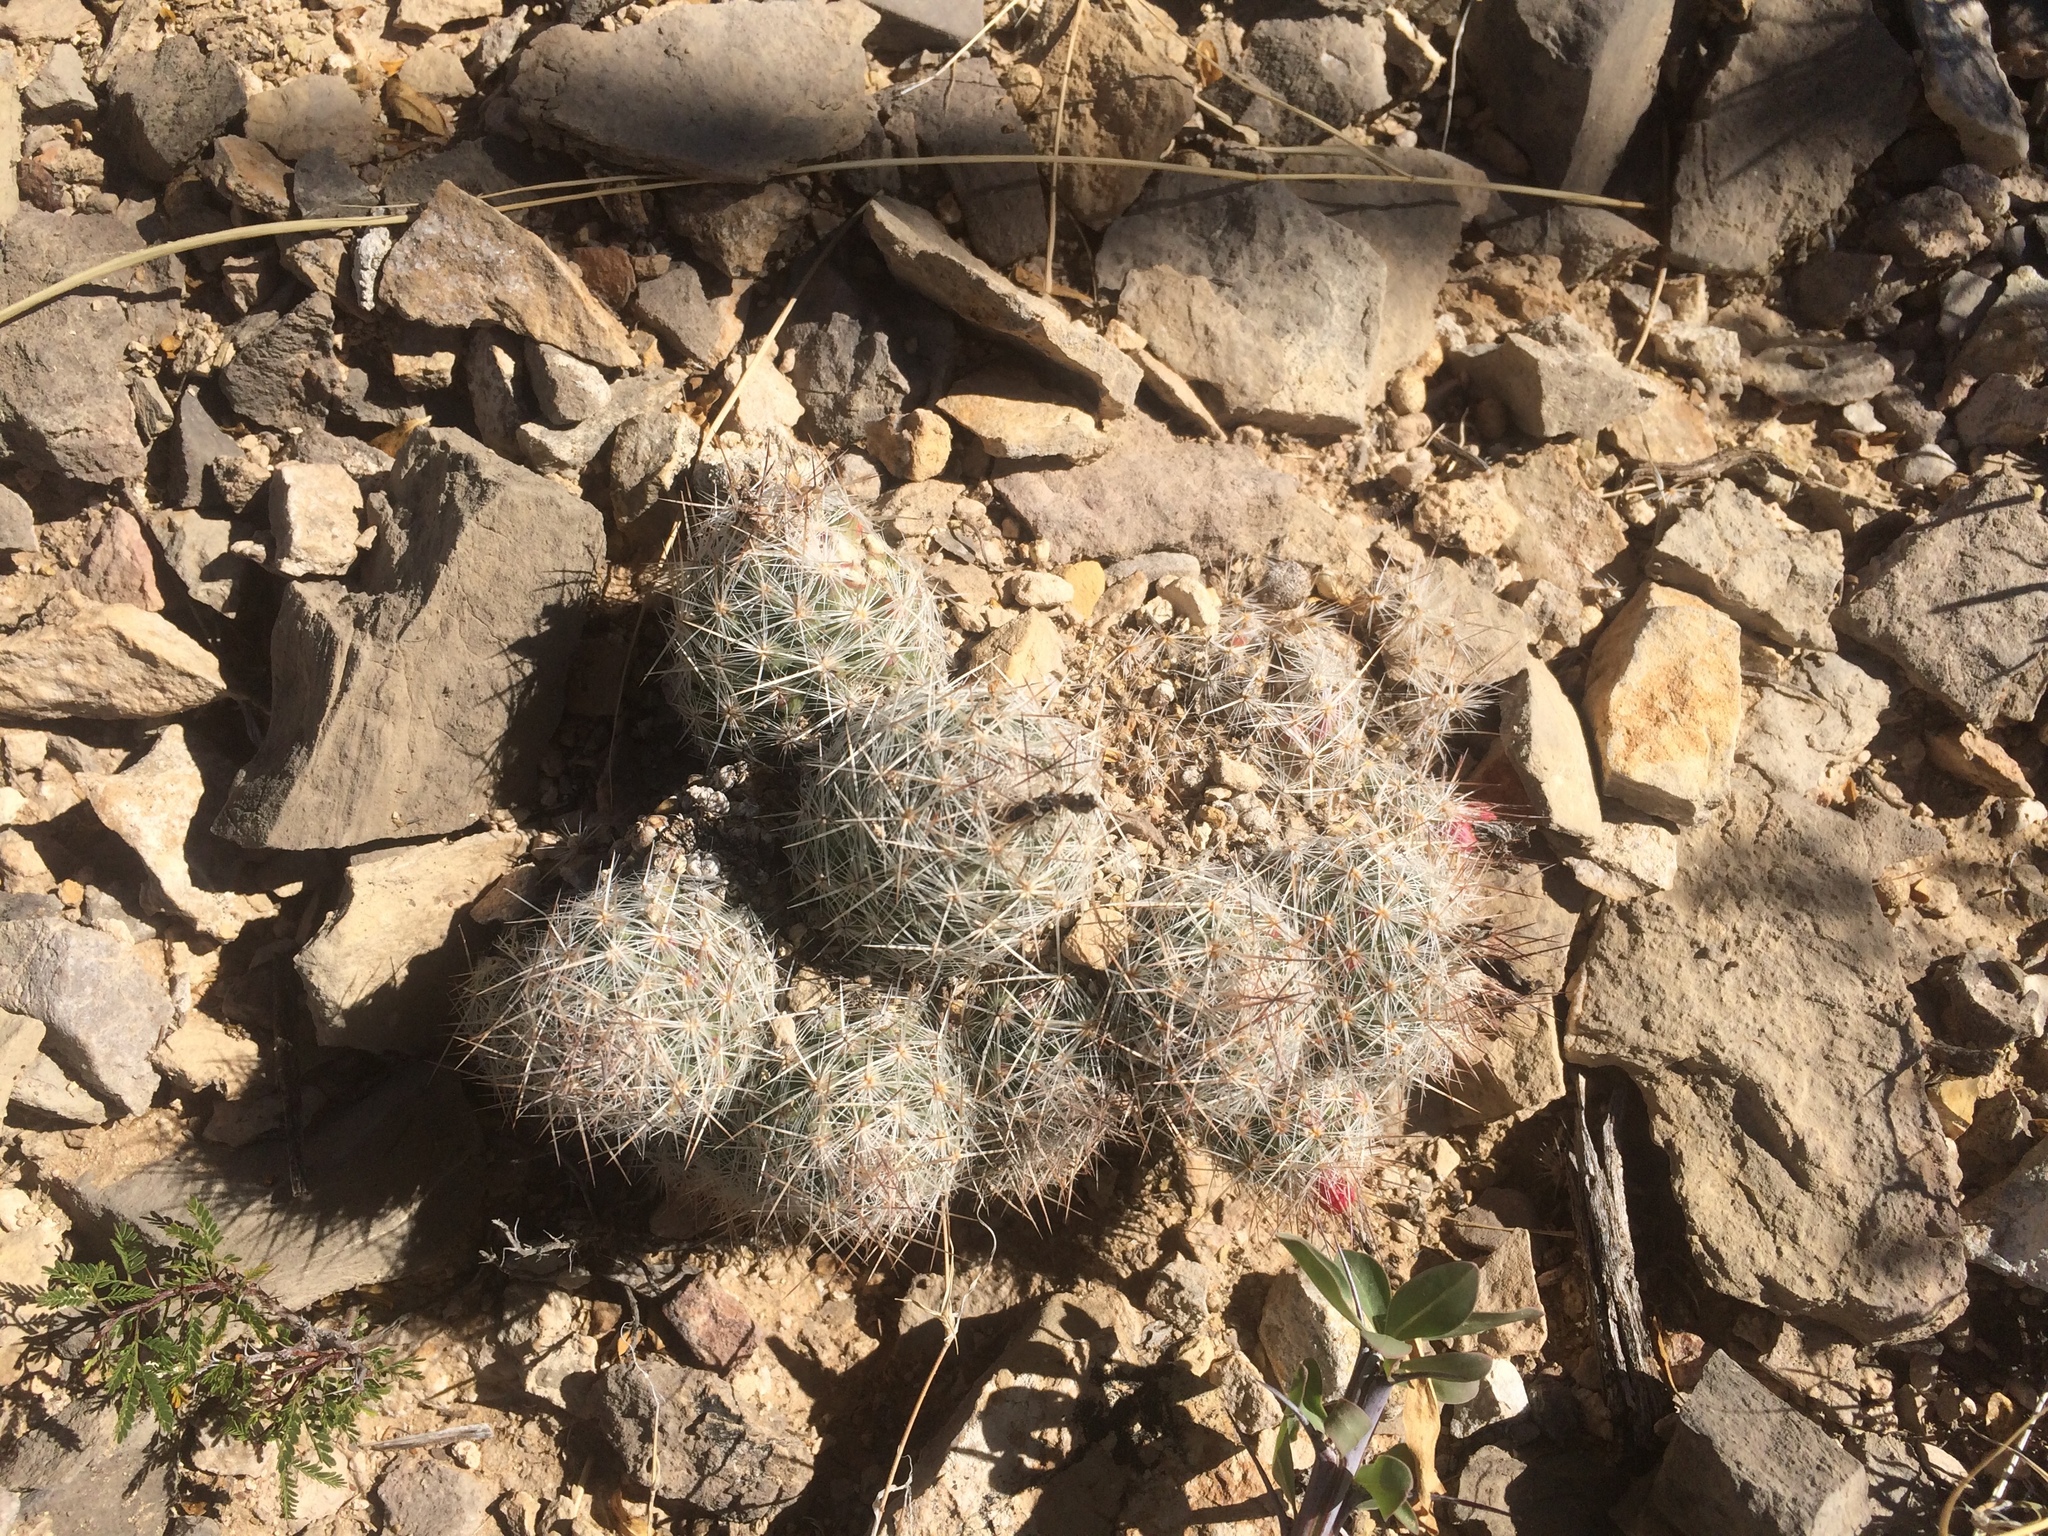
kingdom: Plantae
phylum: Tracheophyta
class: Magnoliopsida
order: Caryophyllales
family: Cactaceae
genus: Pelecyphora
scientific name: Pelecyphora tuberculosa
